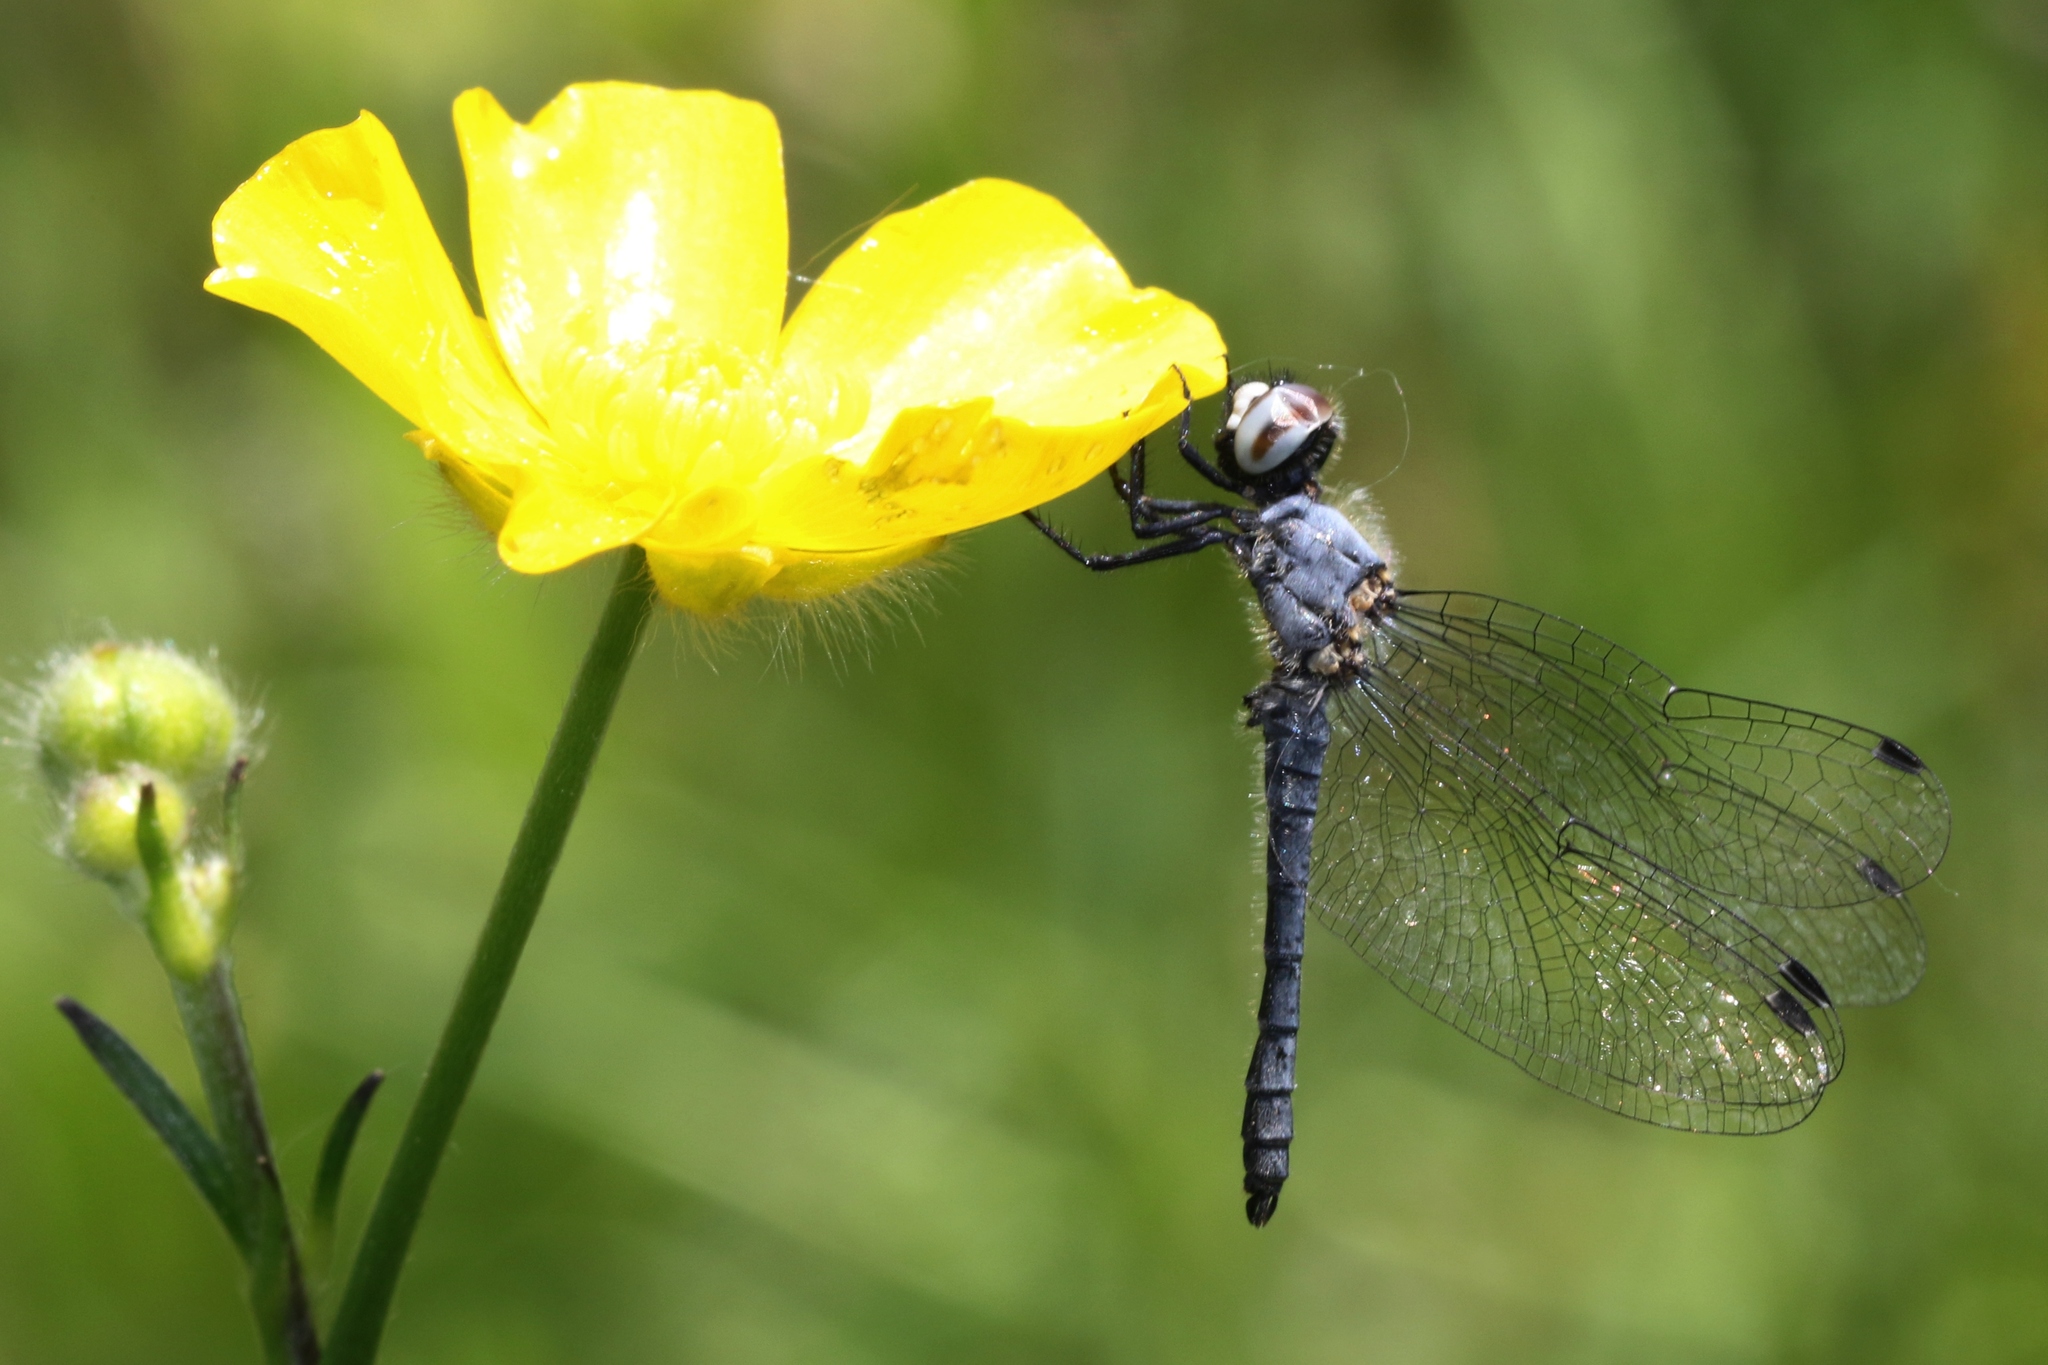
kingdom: Animalia
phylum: Arthropoda
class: Insecta
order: Odonata
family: Libellulidae
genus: Nannothemis
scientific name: Nannothemis bella
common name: Elfin skimmer
